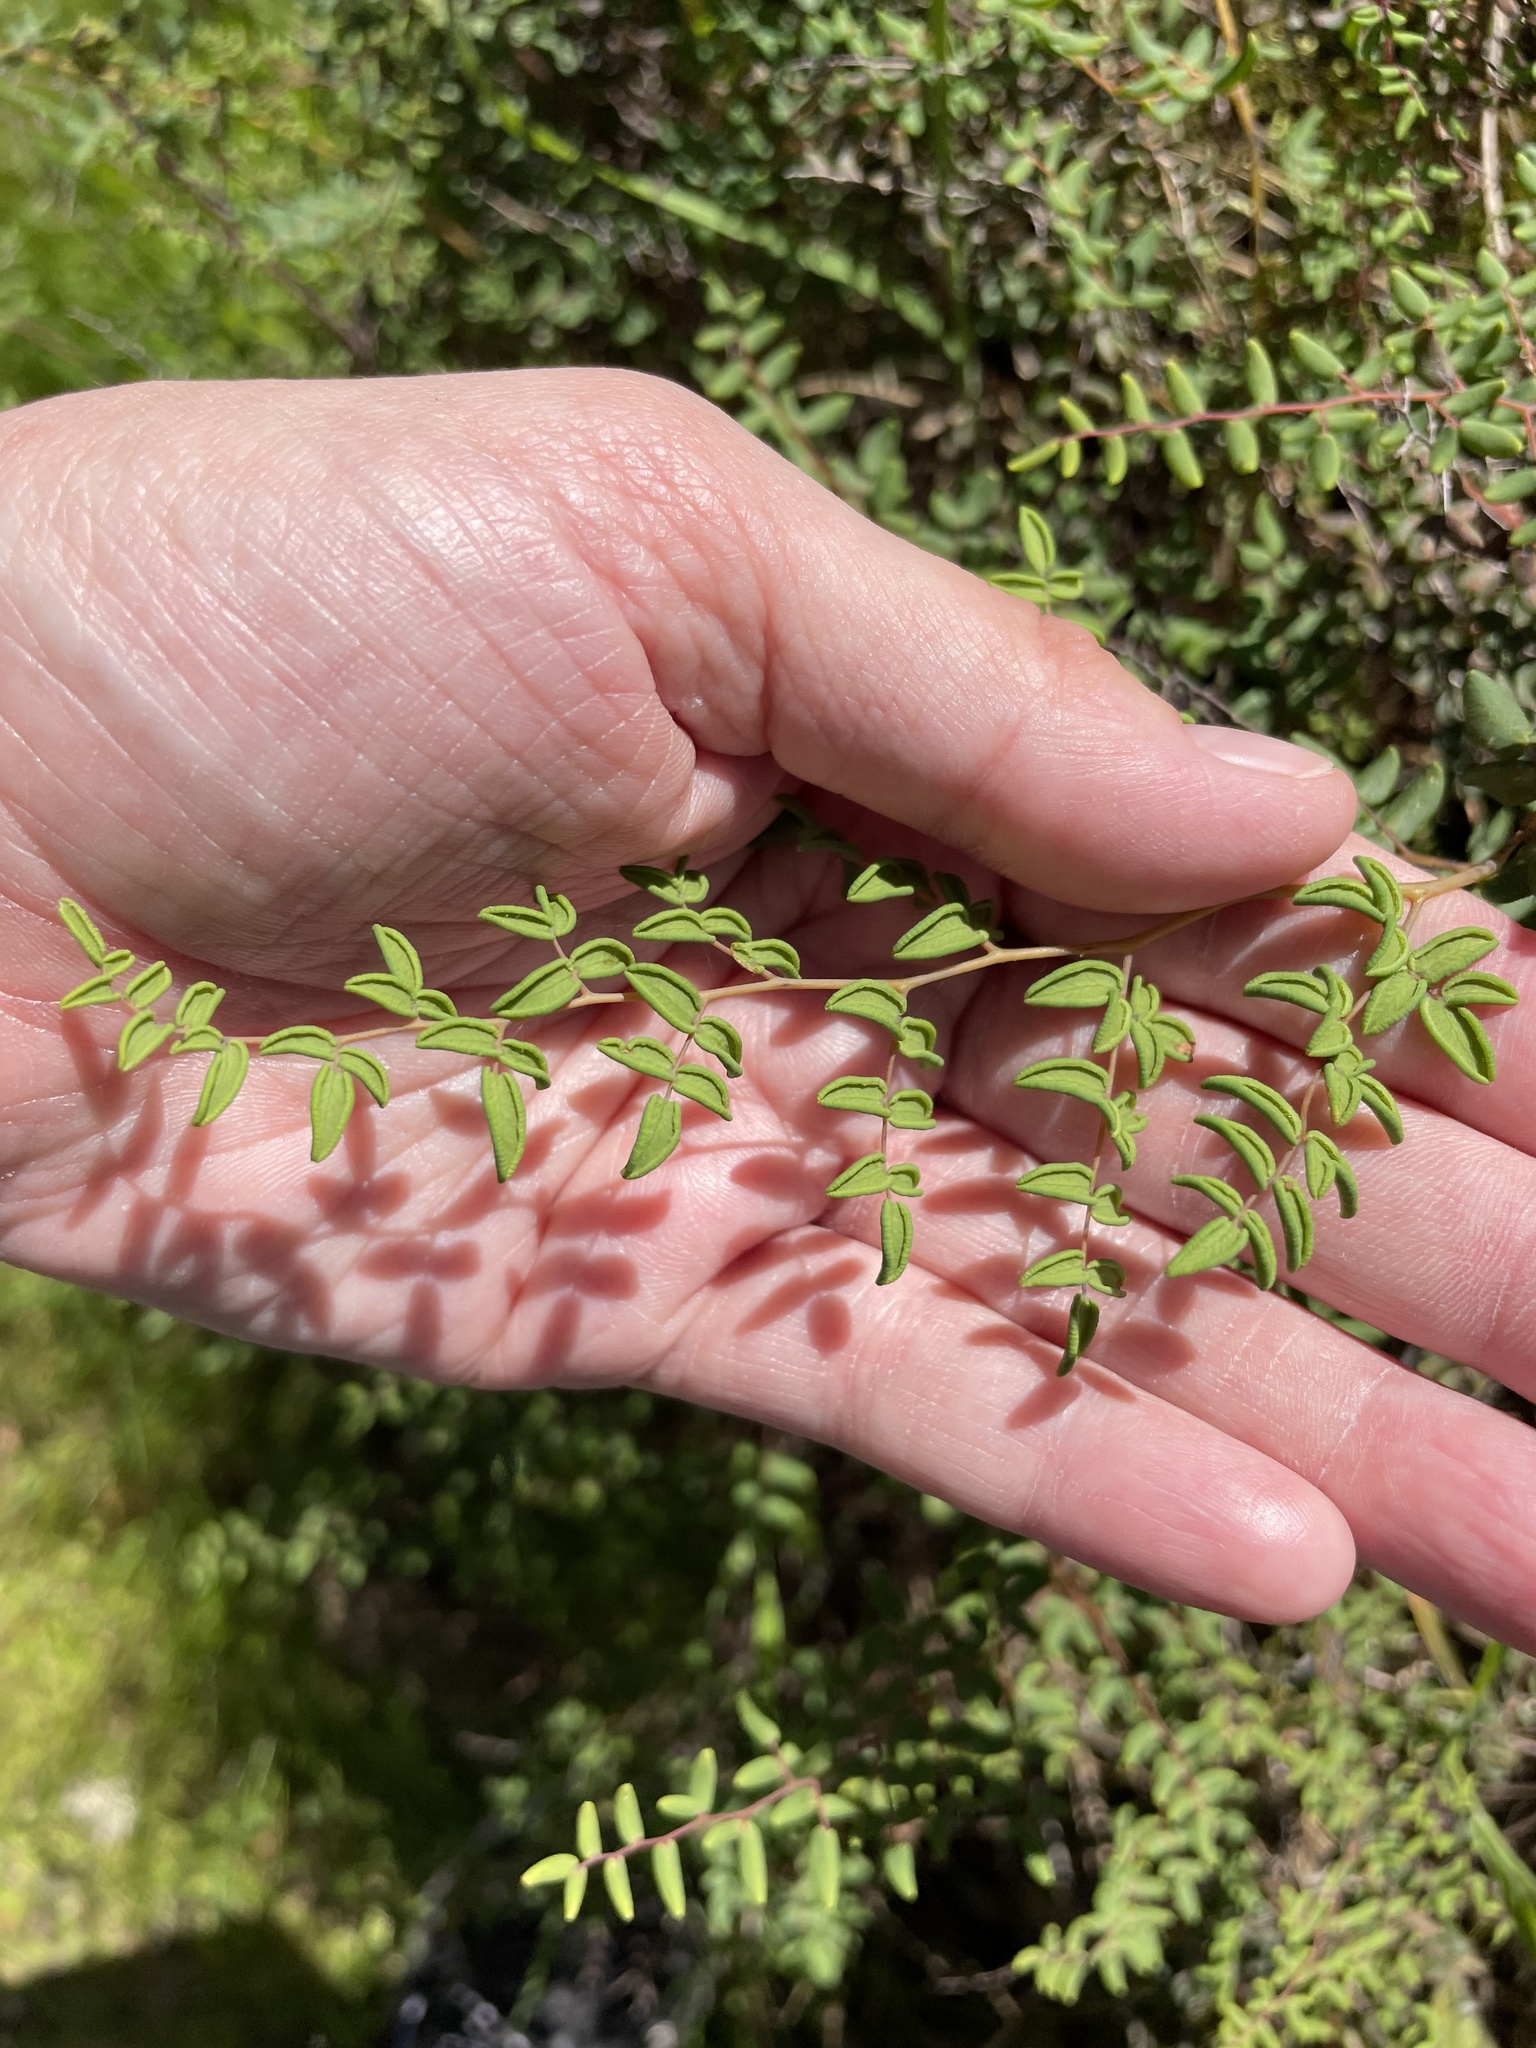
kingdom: Plantae
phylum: Tracheophyta
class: Polypodiopsida
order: Polypodiales
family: Pteridaceae
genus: Pellaea
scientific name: Pellaea andromedifolia
